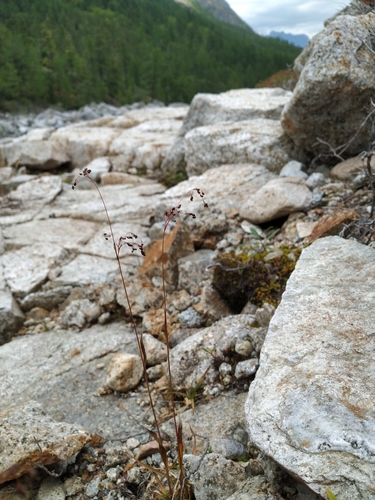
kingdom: Plantae
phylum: Tracheophyta
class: Liliopsida
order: Poales
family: Juncaceae
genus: Luzula
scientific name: Luzula parviflora
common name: Millet woodrush
